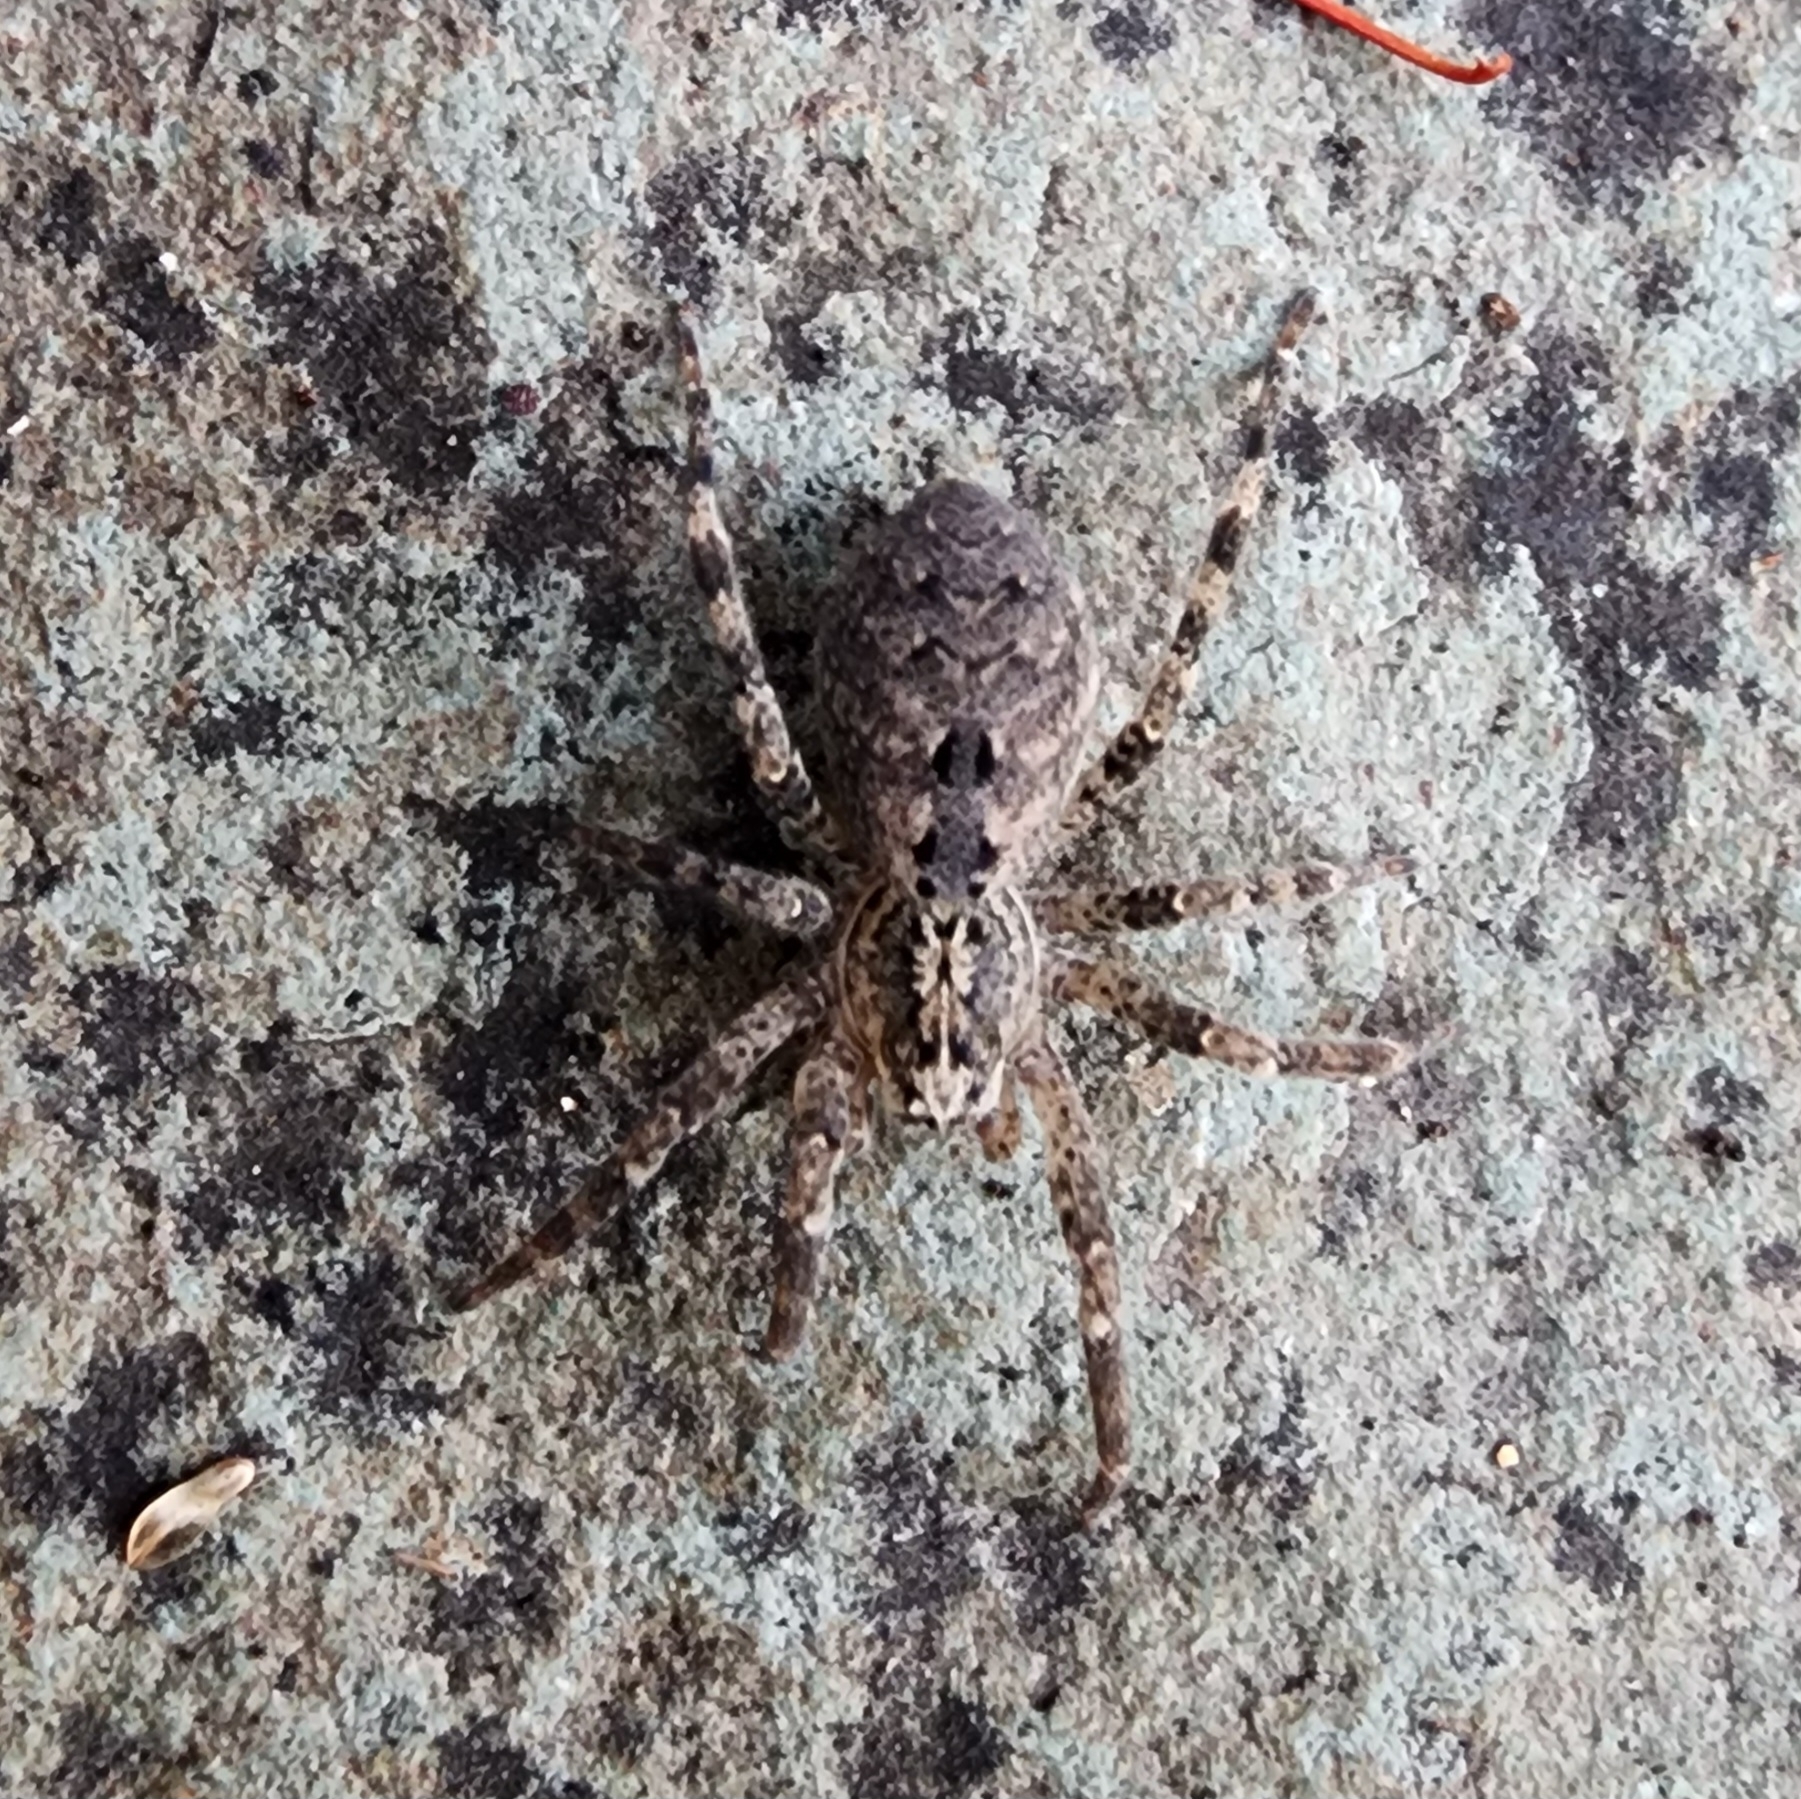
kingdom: Animalia
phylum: Arthropoda
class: Arachnida
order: Araneae
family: Zoropsidae
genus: Zoropsis
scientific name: Zoropsis spinimana
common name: Zoropsid spider
